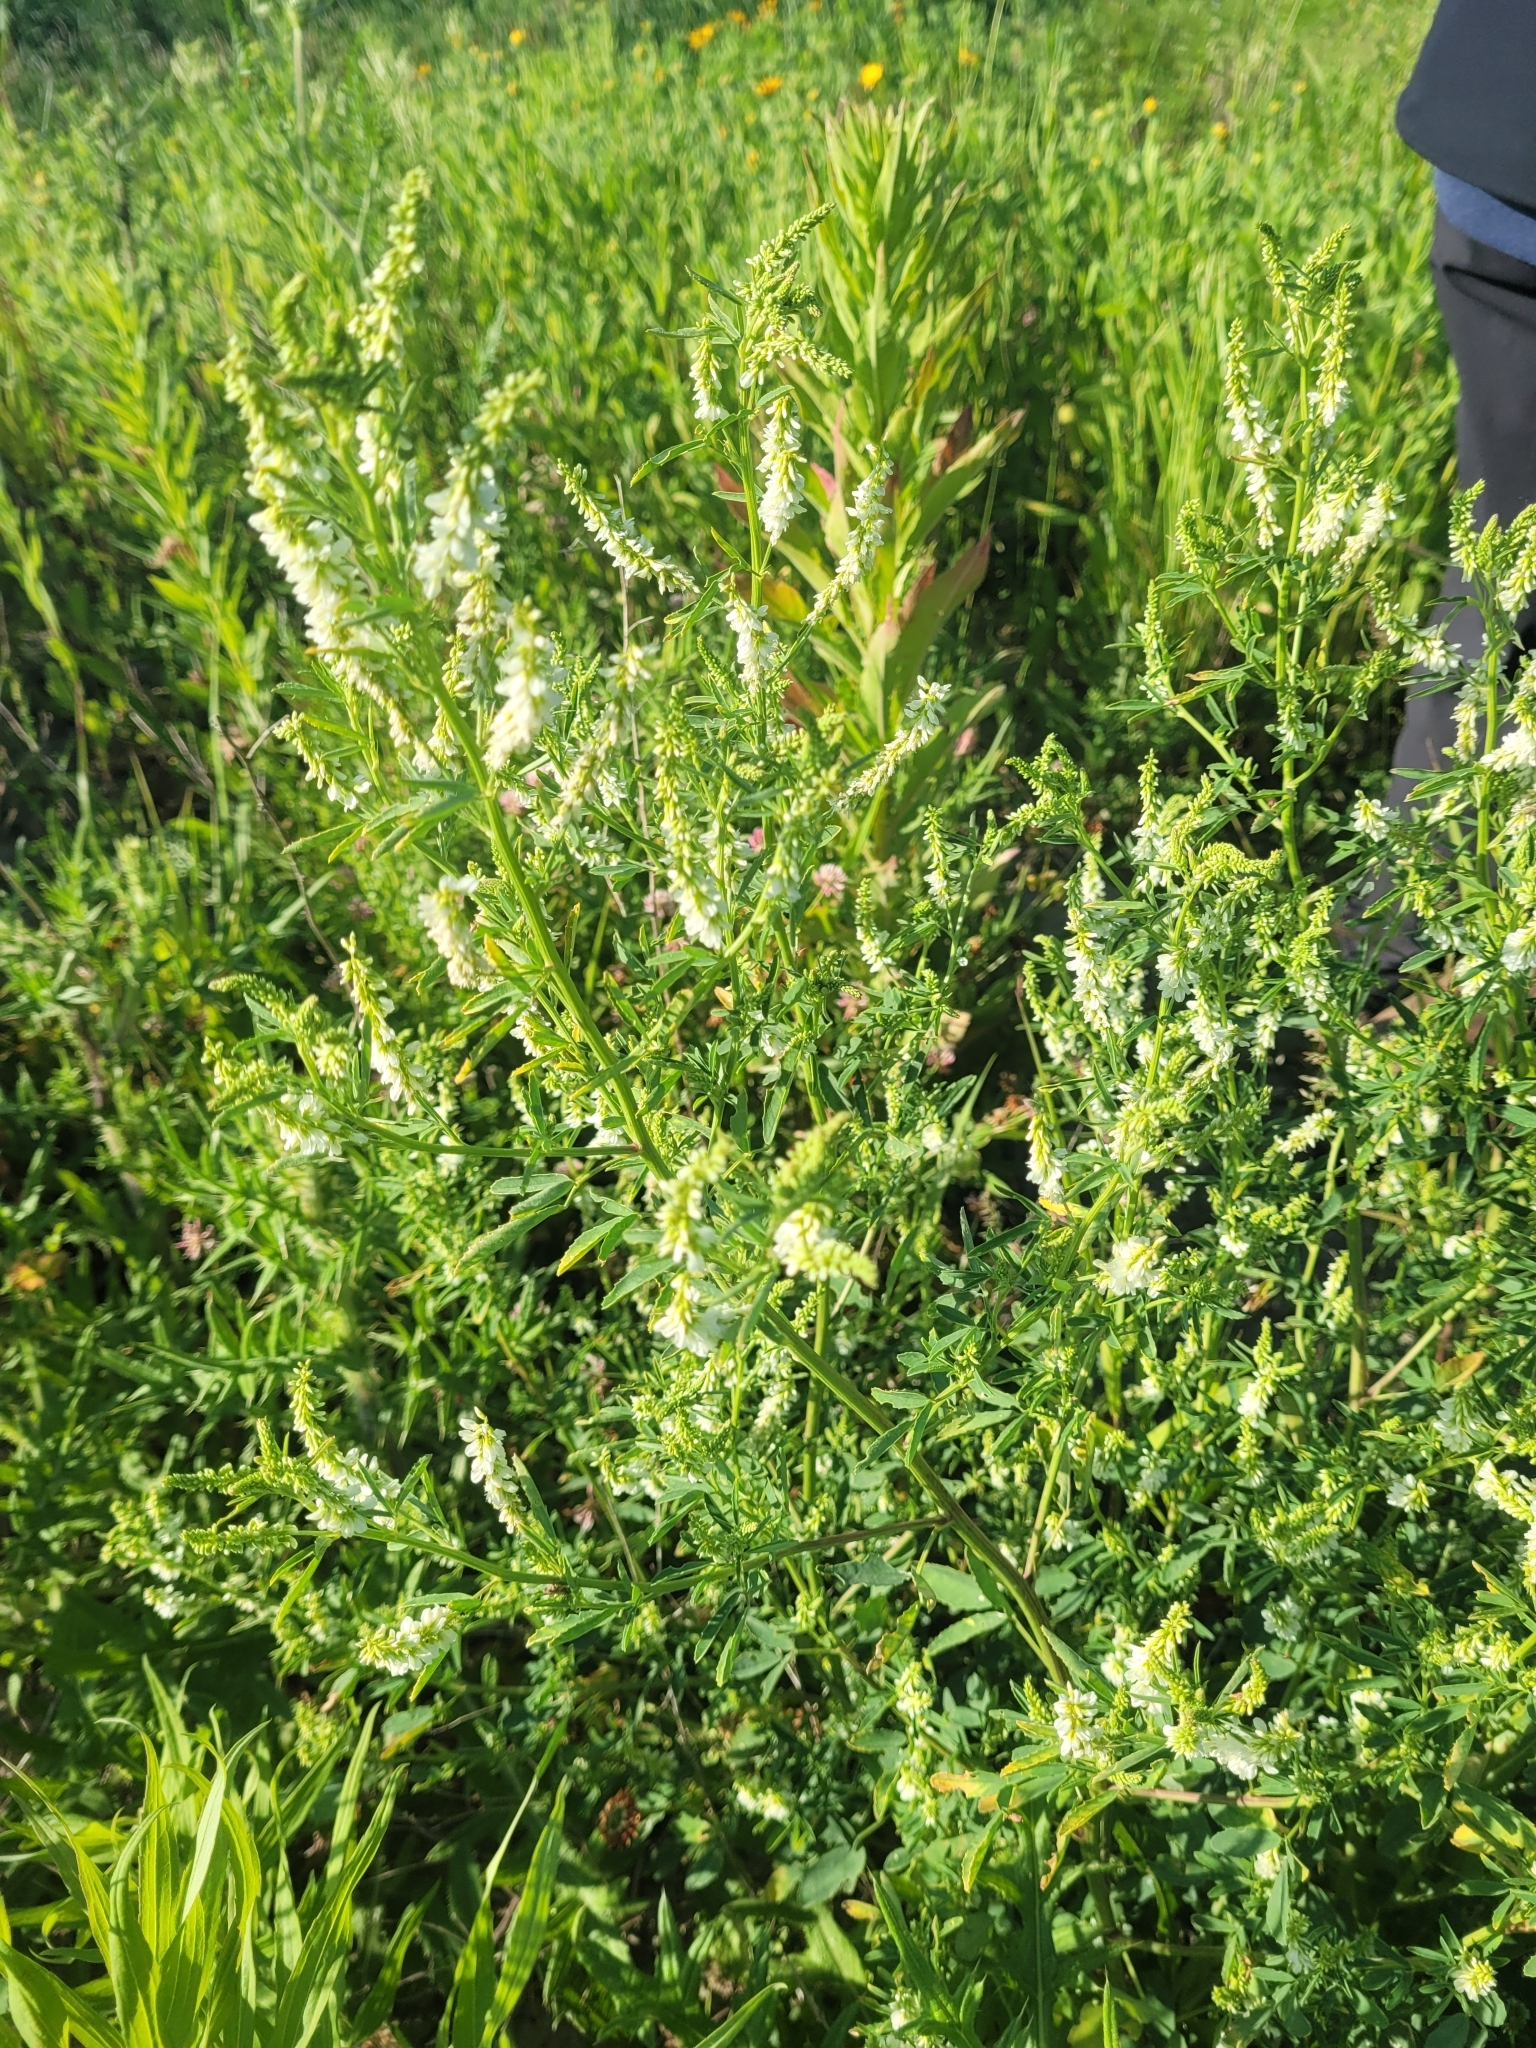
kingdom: Plantae
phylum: Tracheophyta
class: Magnoliopsida
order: Fabales
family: Fabaceae
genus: Melilotus
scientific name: Melilotus albus
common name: White melilot
